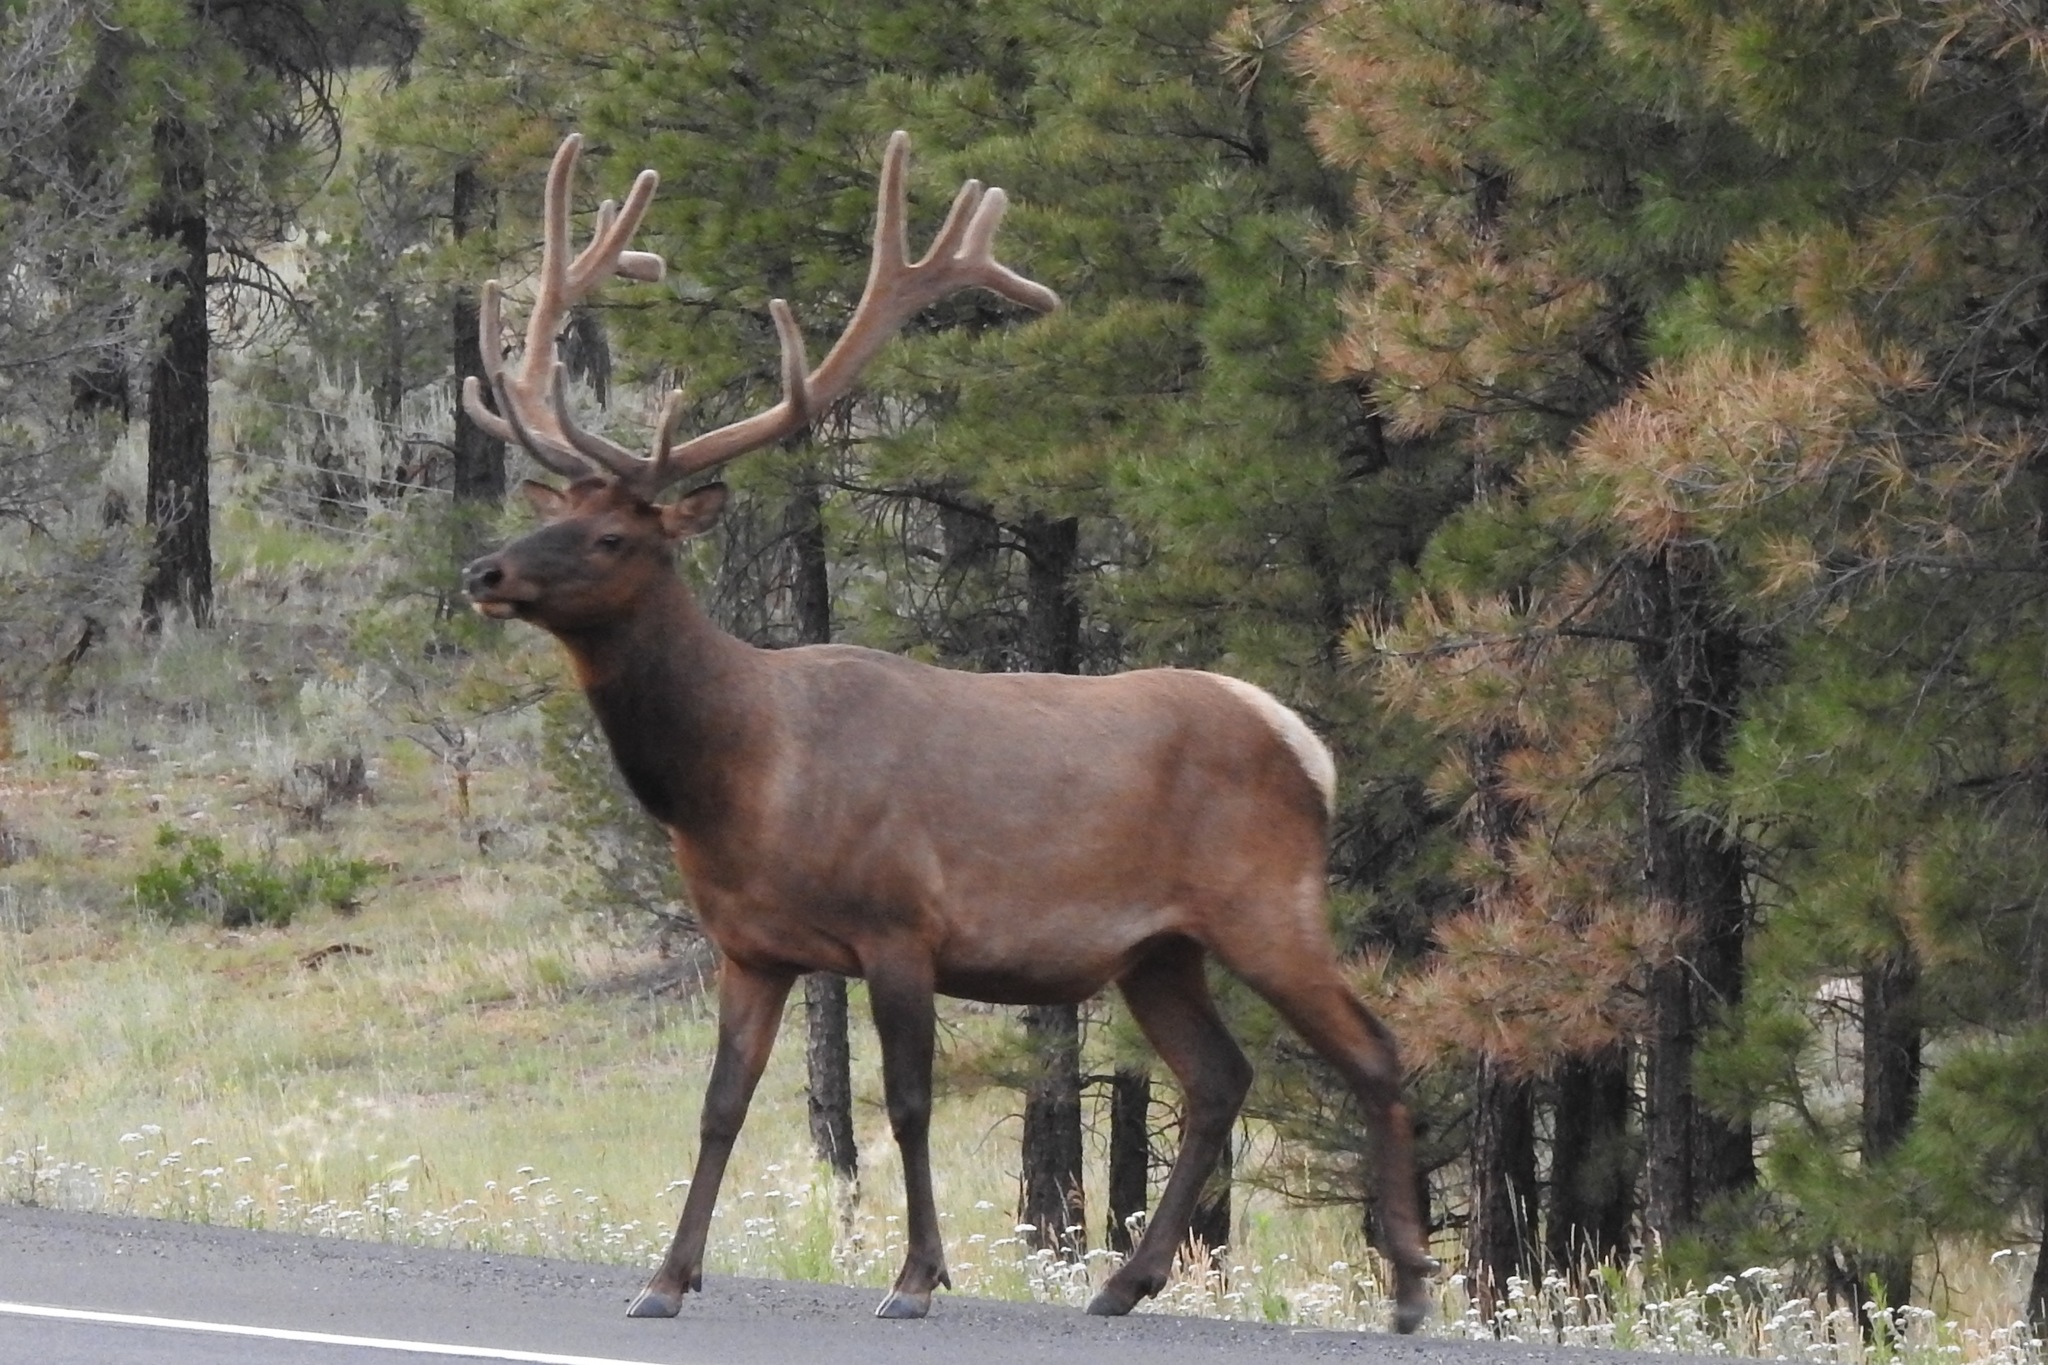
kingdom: Animalia
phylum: Chordata
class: Mammalia
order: Artiodactyla
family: Cervidae
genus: Cervus
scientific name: Cervus elaphus
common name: Red deer
